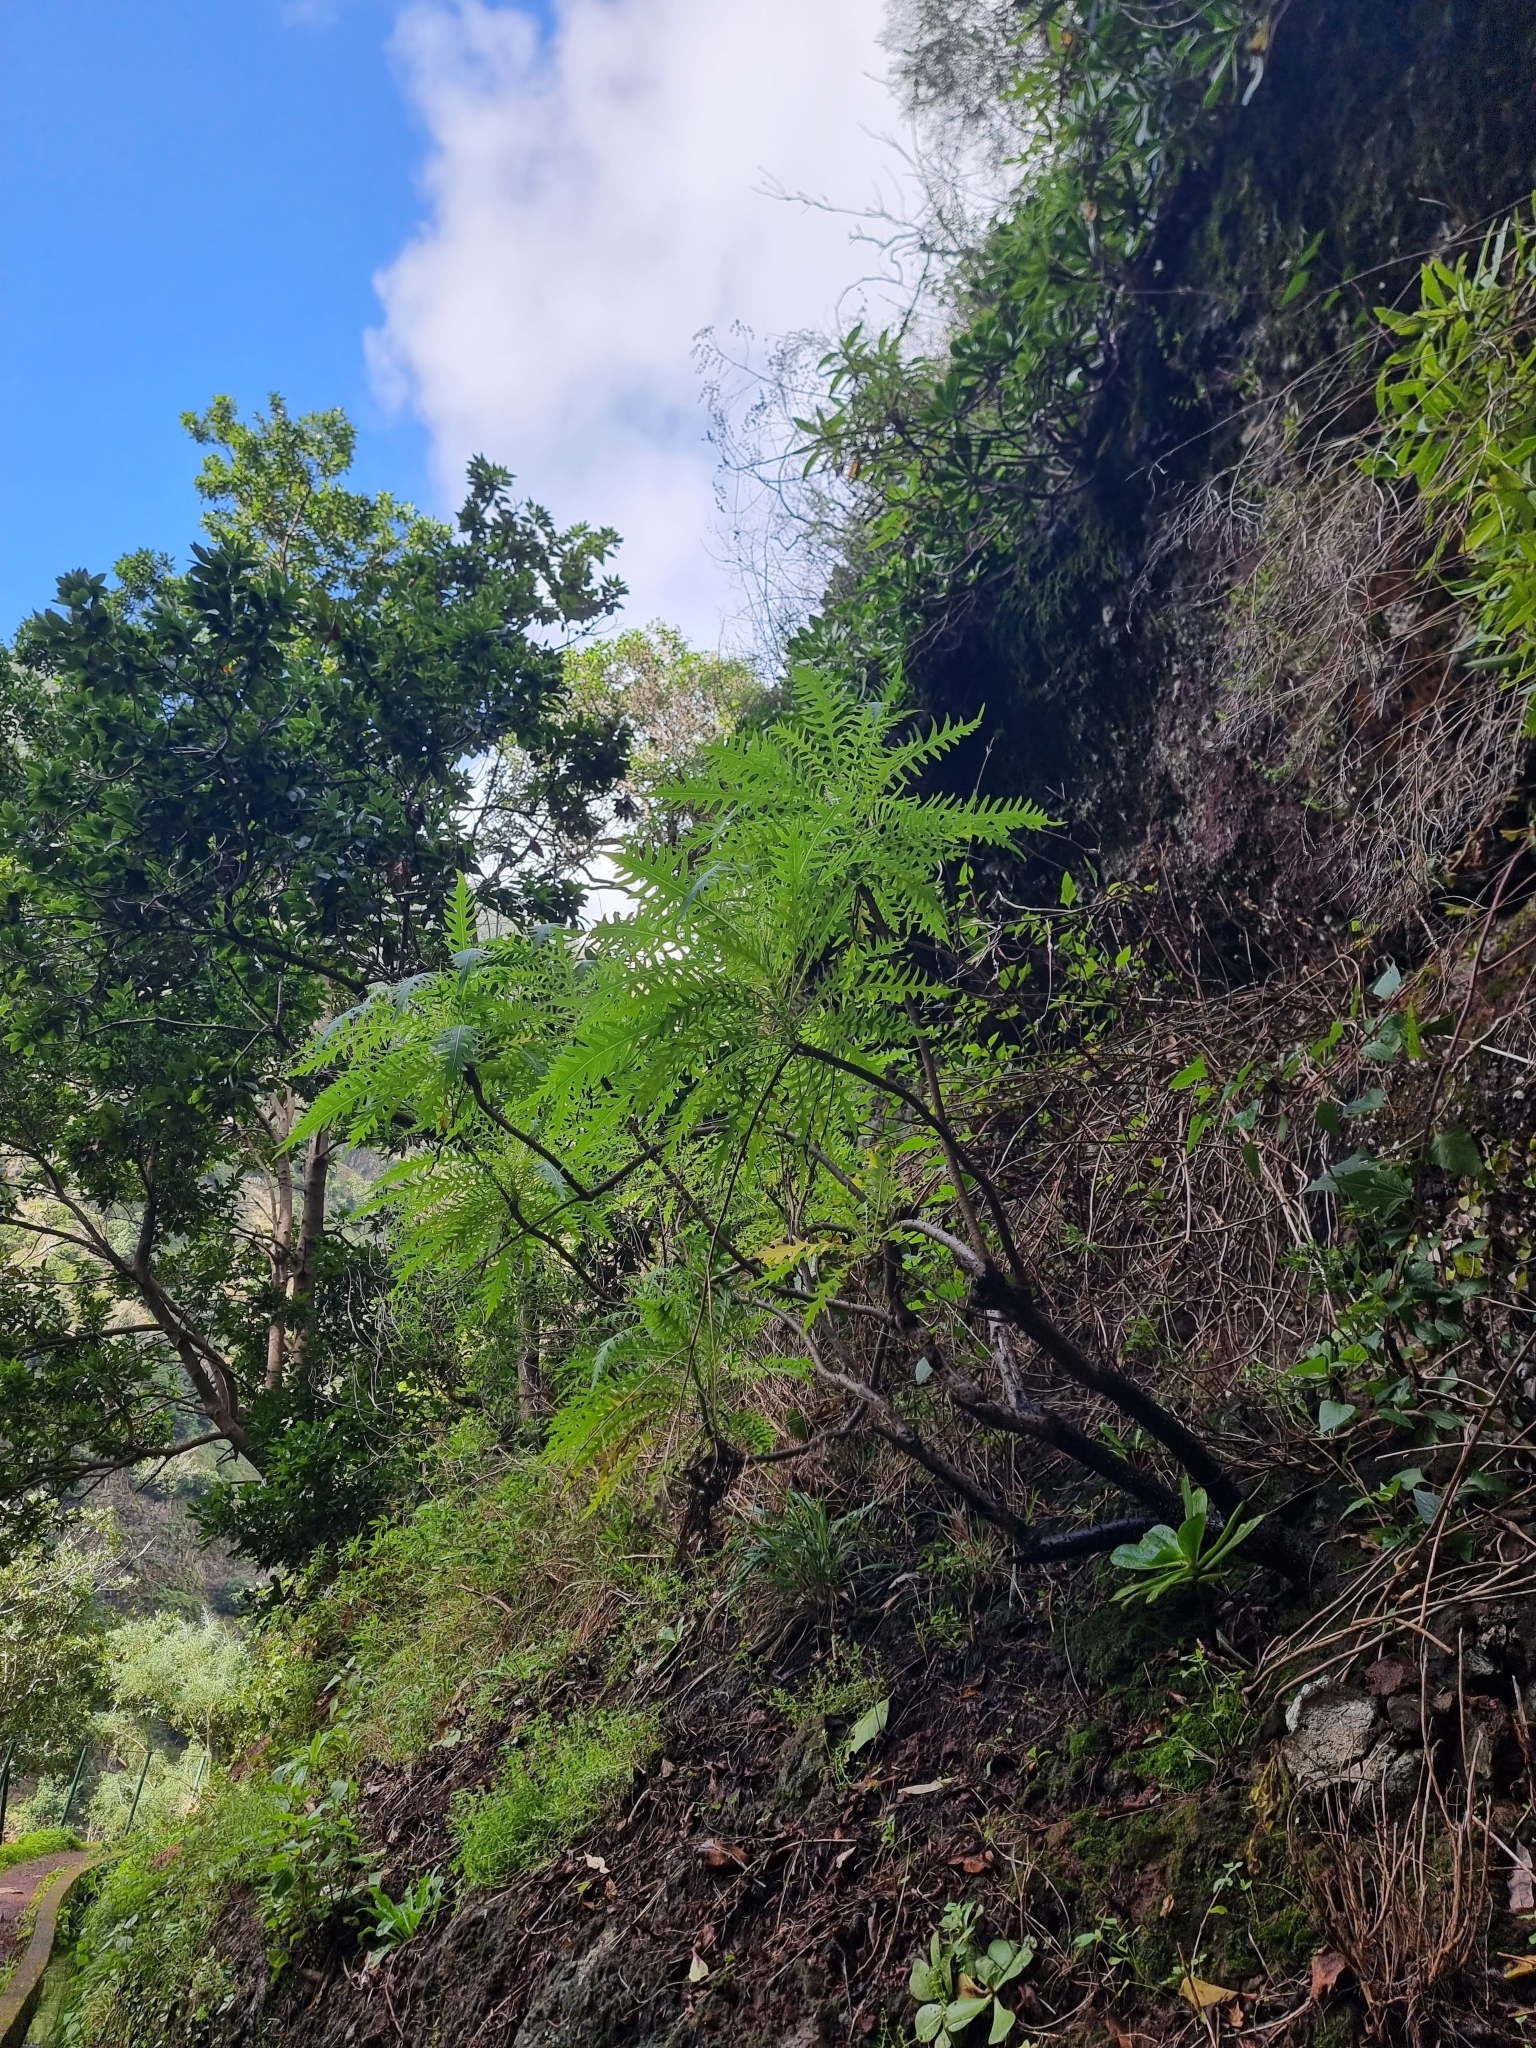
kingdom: Plantae
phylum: Tracheophyta
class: Magnoliopsida
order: Asterales
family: Asteraceae
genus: Sonchus
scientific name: Sonchus pinnatus
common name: Wing-leaved sow-thistle
